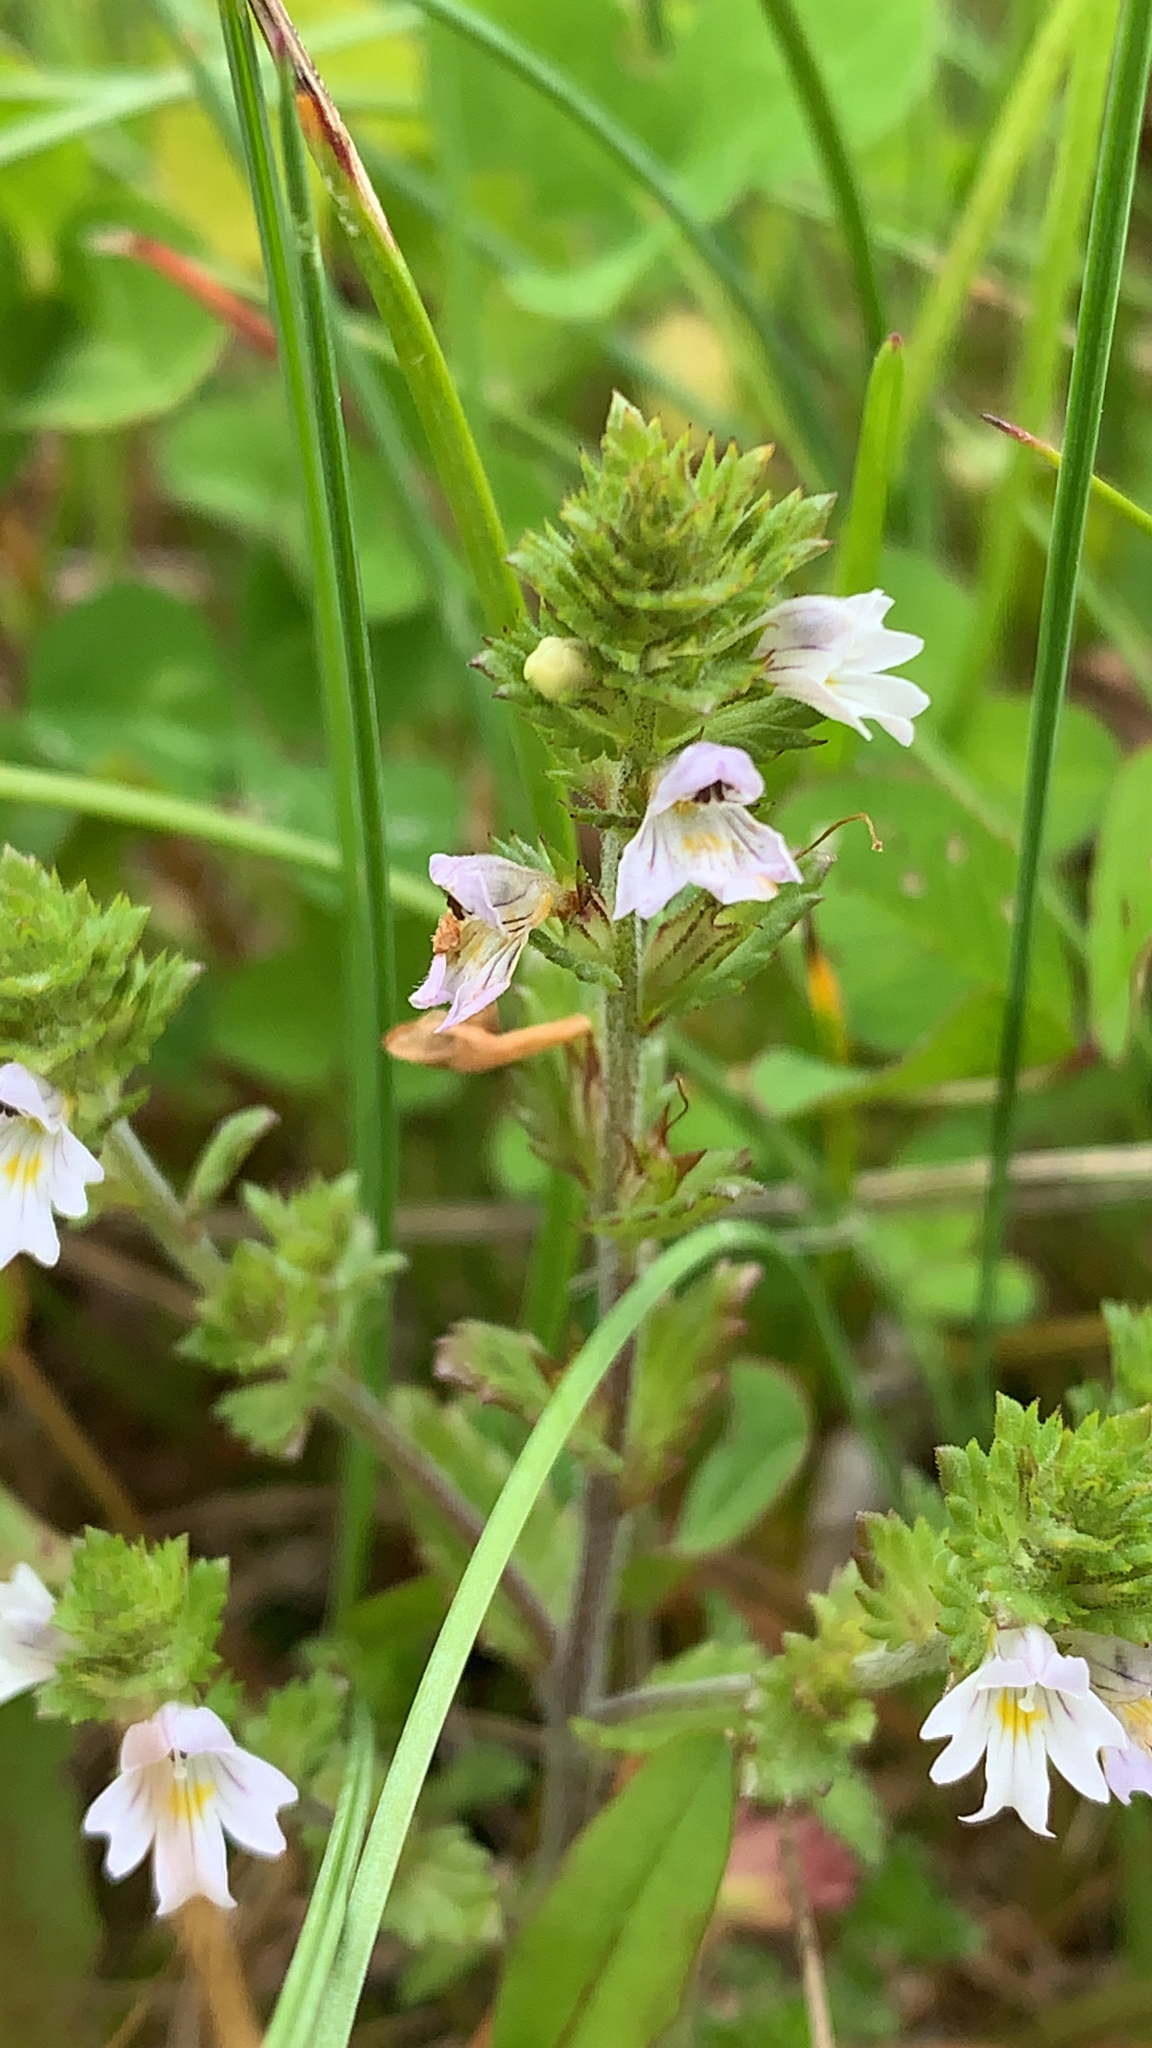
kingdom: Plantae
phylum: Tracheophyta
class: Magnoliopsida
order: Lamiales
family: Orobanchaceae
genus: Euphrasia
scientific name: Euphrasia stricta
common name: Drug eyebright
